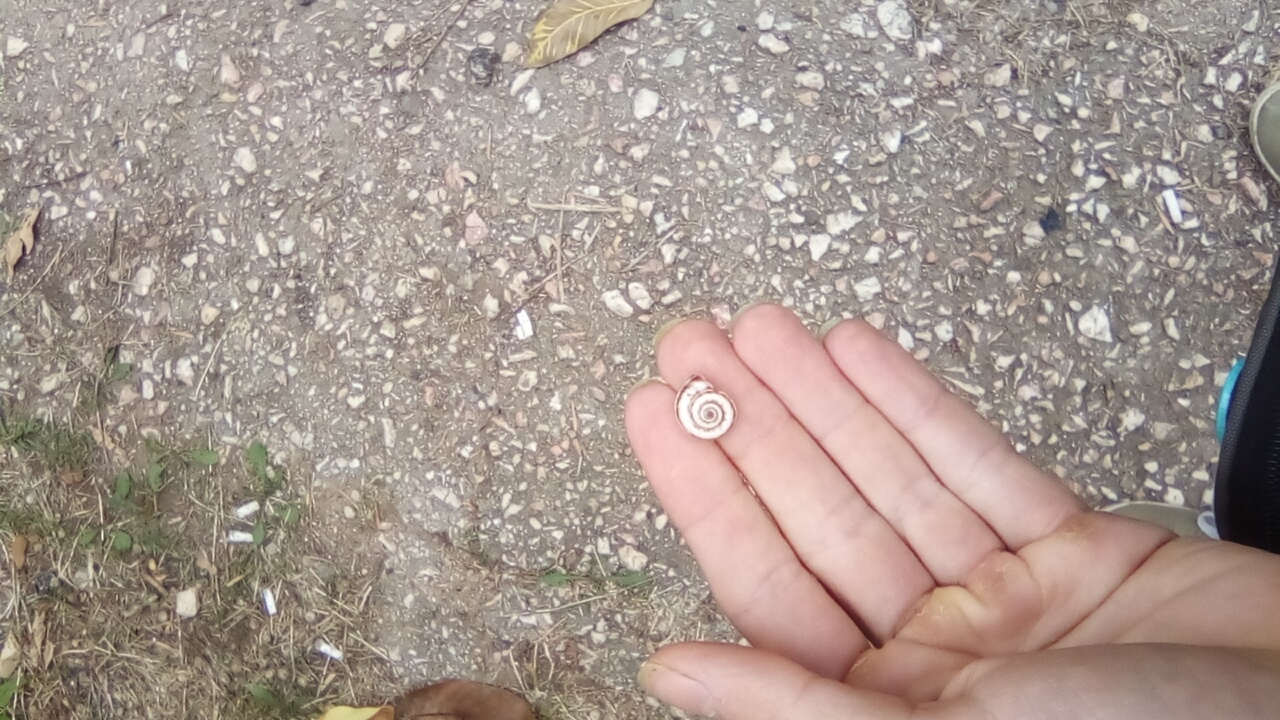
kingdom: Animalia
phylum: Mollusca
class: Gastropoda
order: Stylommatophora
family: Geomitridae
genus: Xeropicta
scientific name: Xeropicta derbentina
